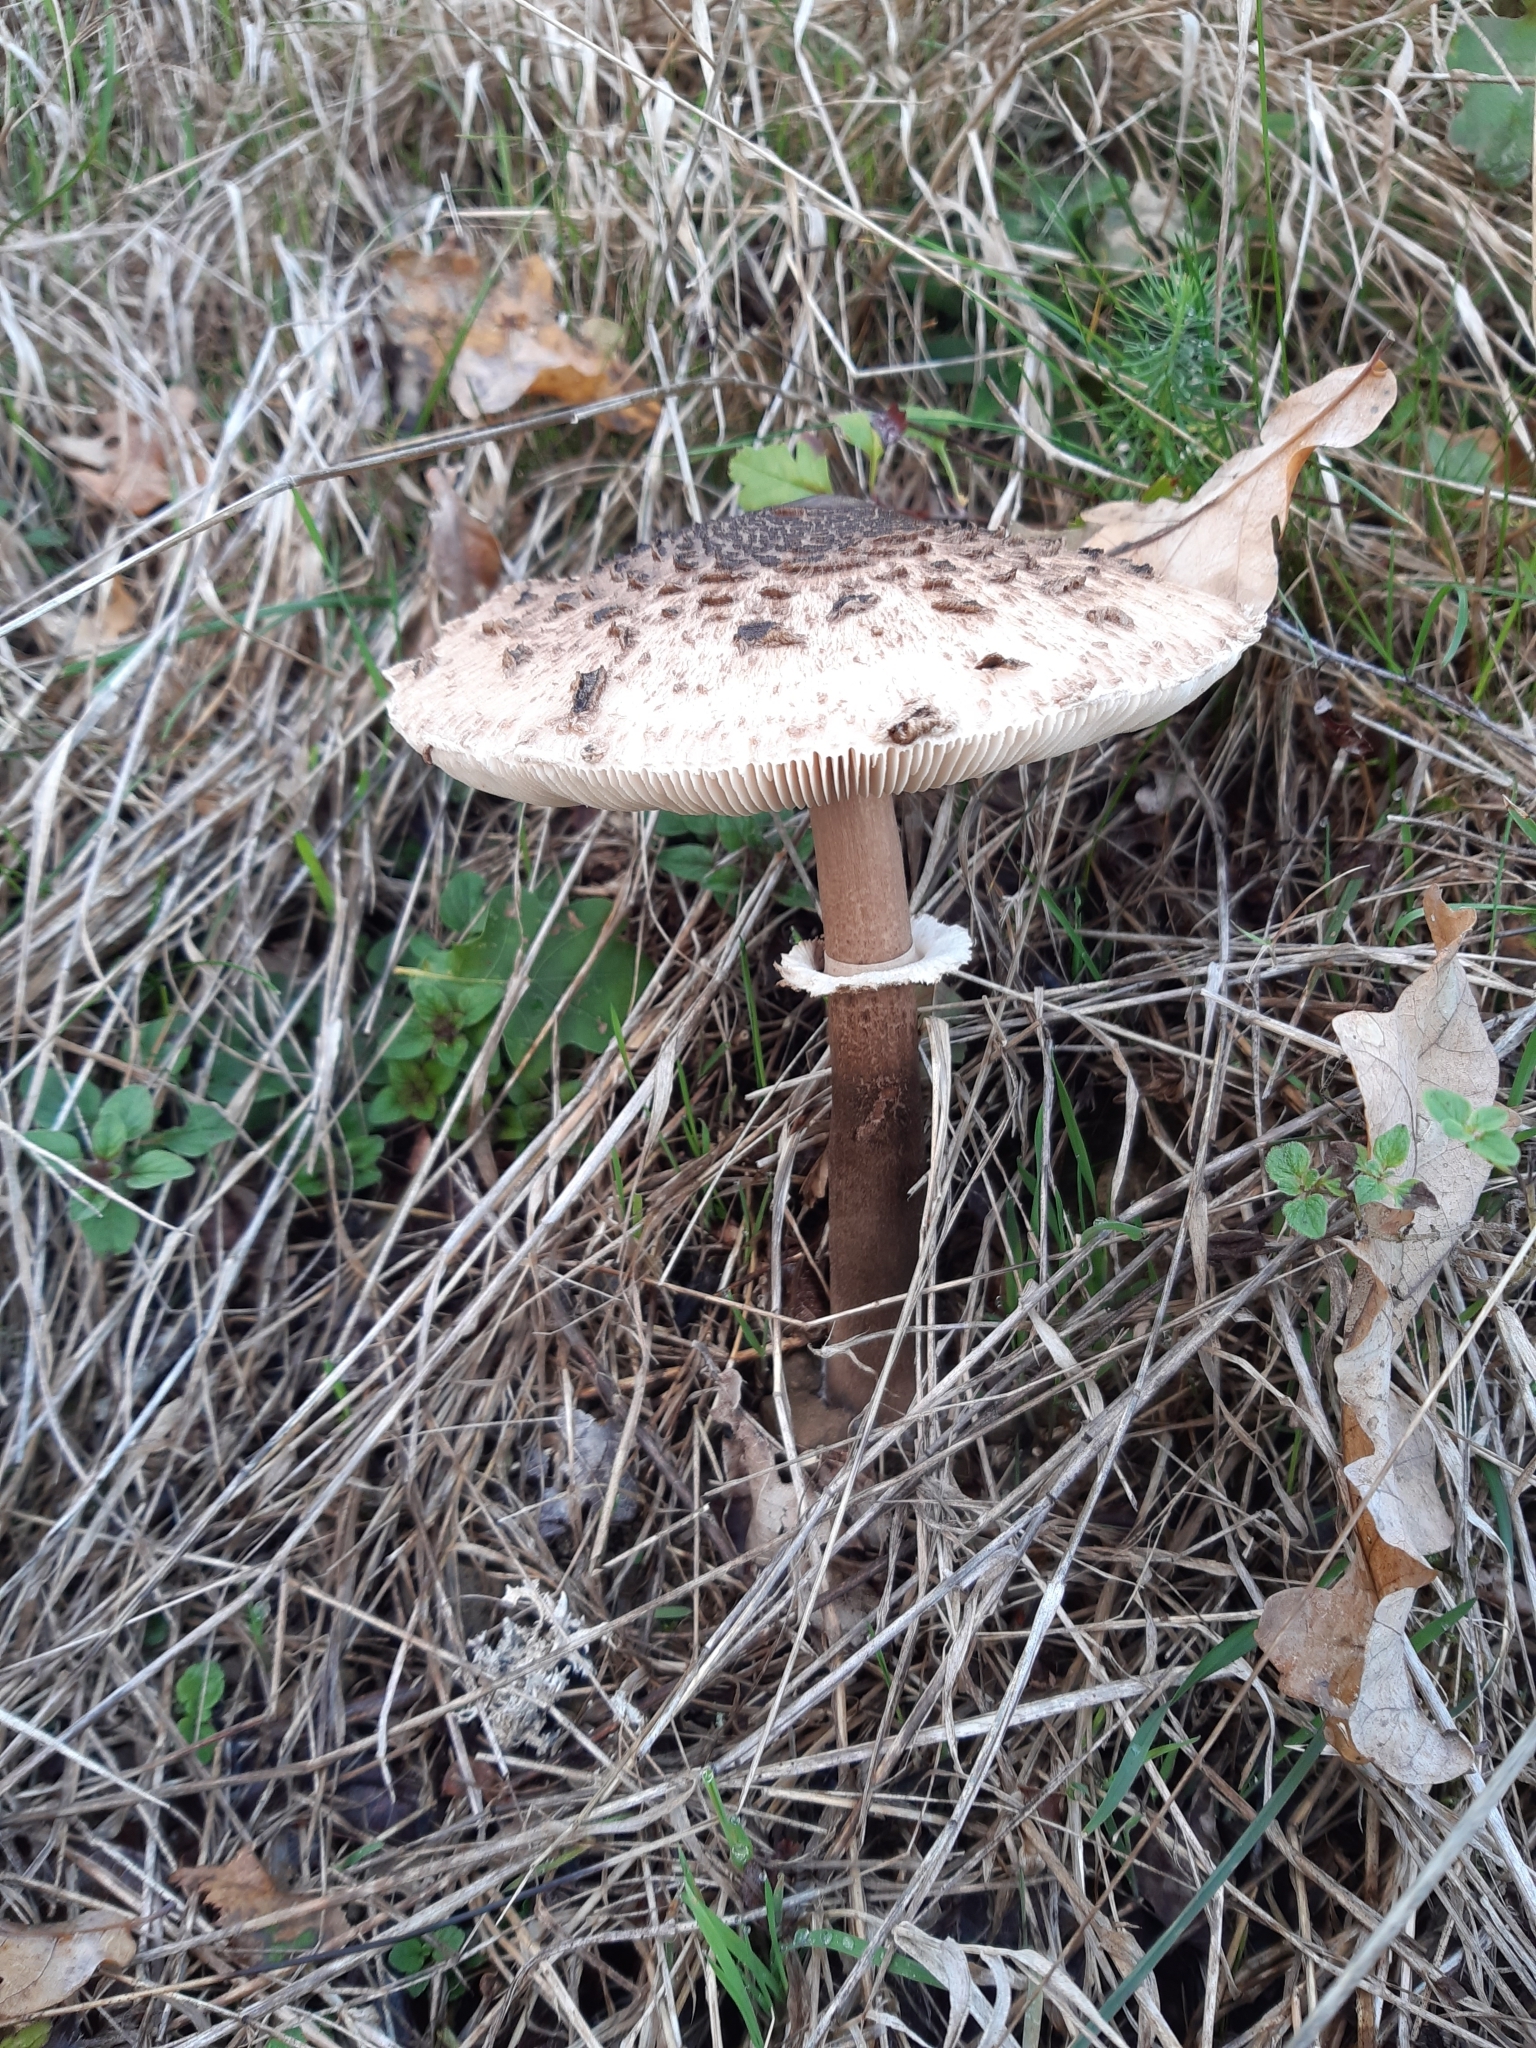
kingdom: Fungi
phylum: Basidiomycota
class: Agaricomycetes
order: Agaricales
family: Agaricaceae
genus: Macrolepiota
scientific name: Macrolepiota procera
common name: Parasol
